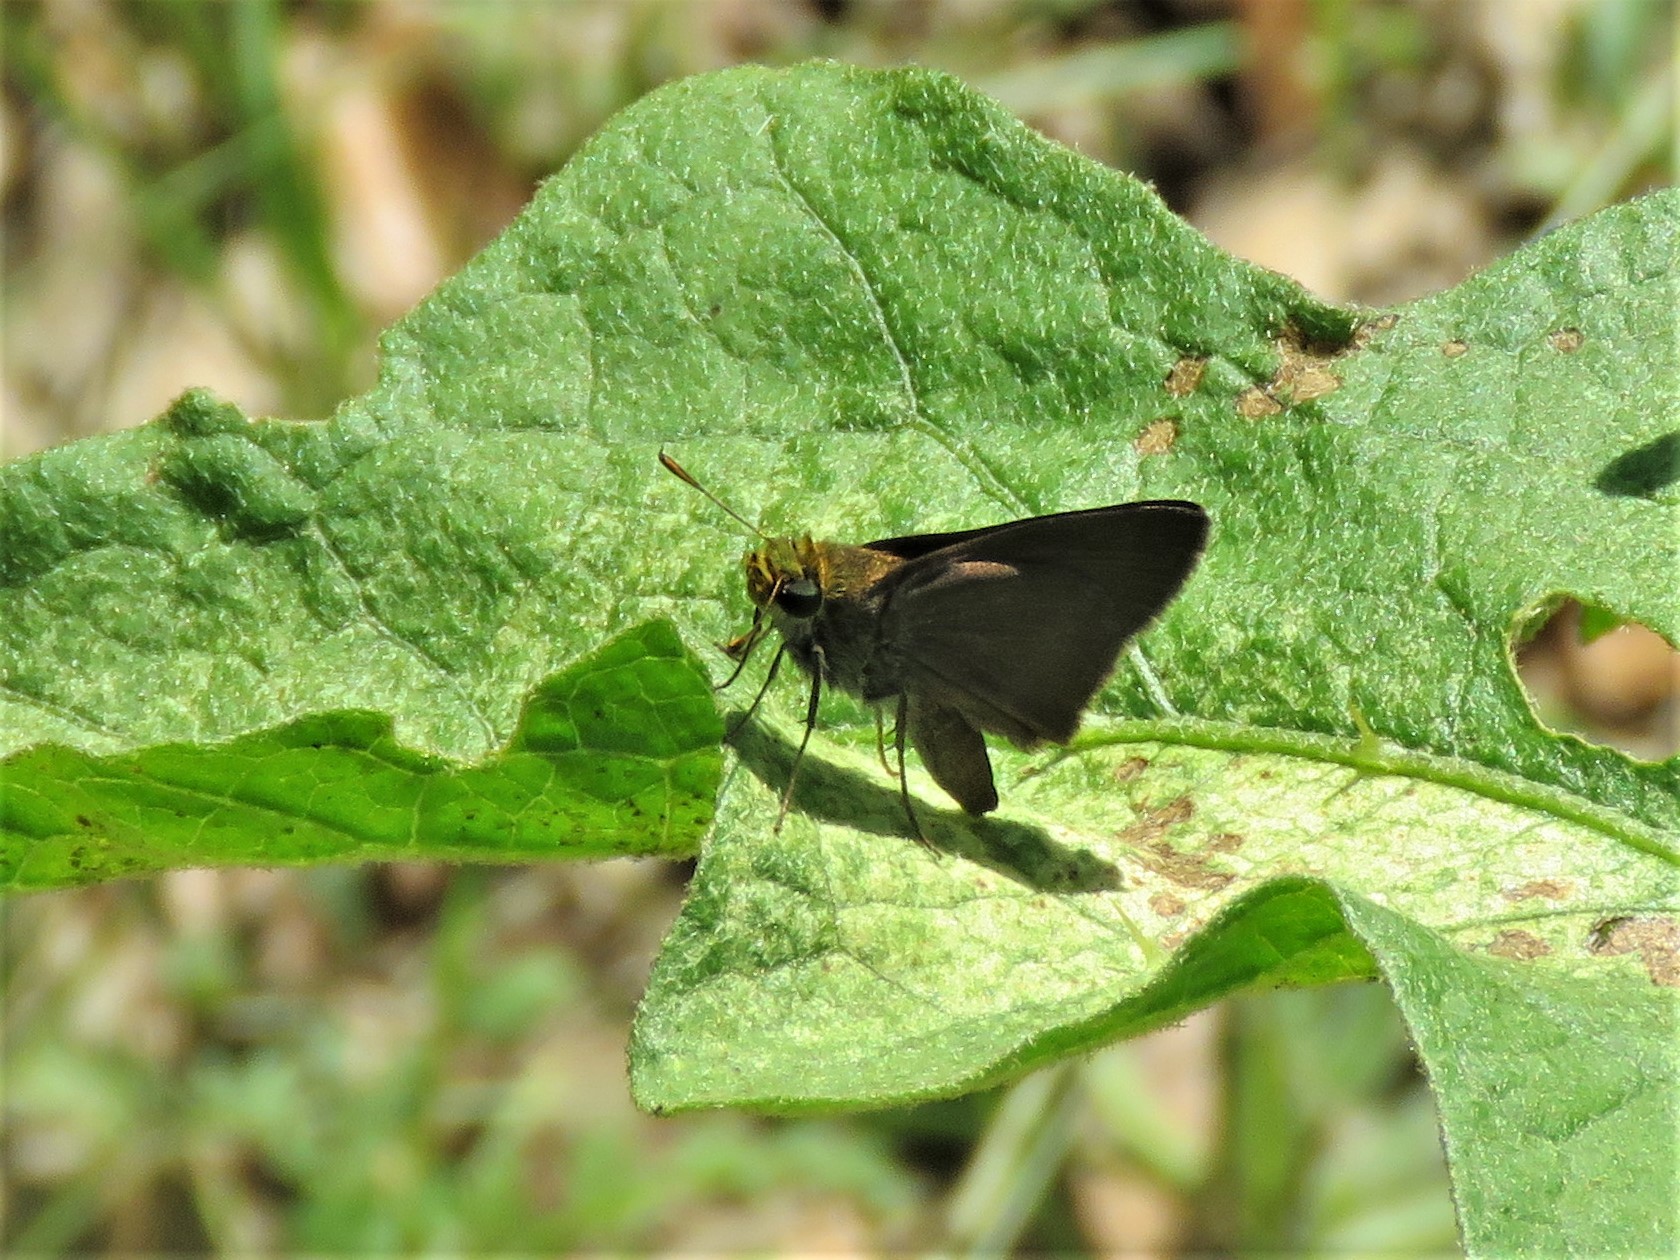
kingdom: Animalia
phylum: Arthropoda
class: Insecta
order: Lepidoptera
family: Hesperiidae
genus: Euphyes
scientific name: Euphyes vestris
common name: Dun skipper
